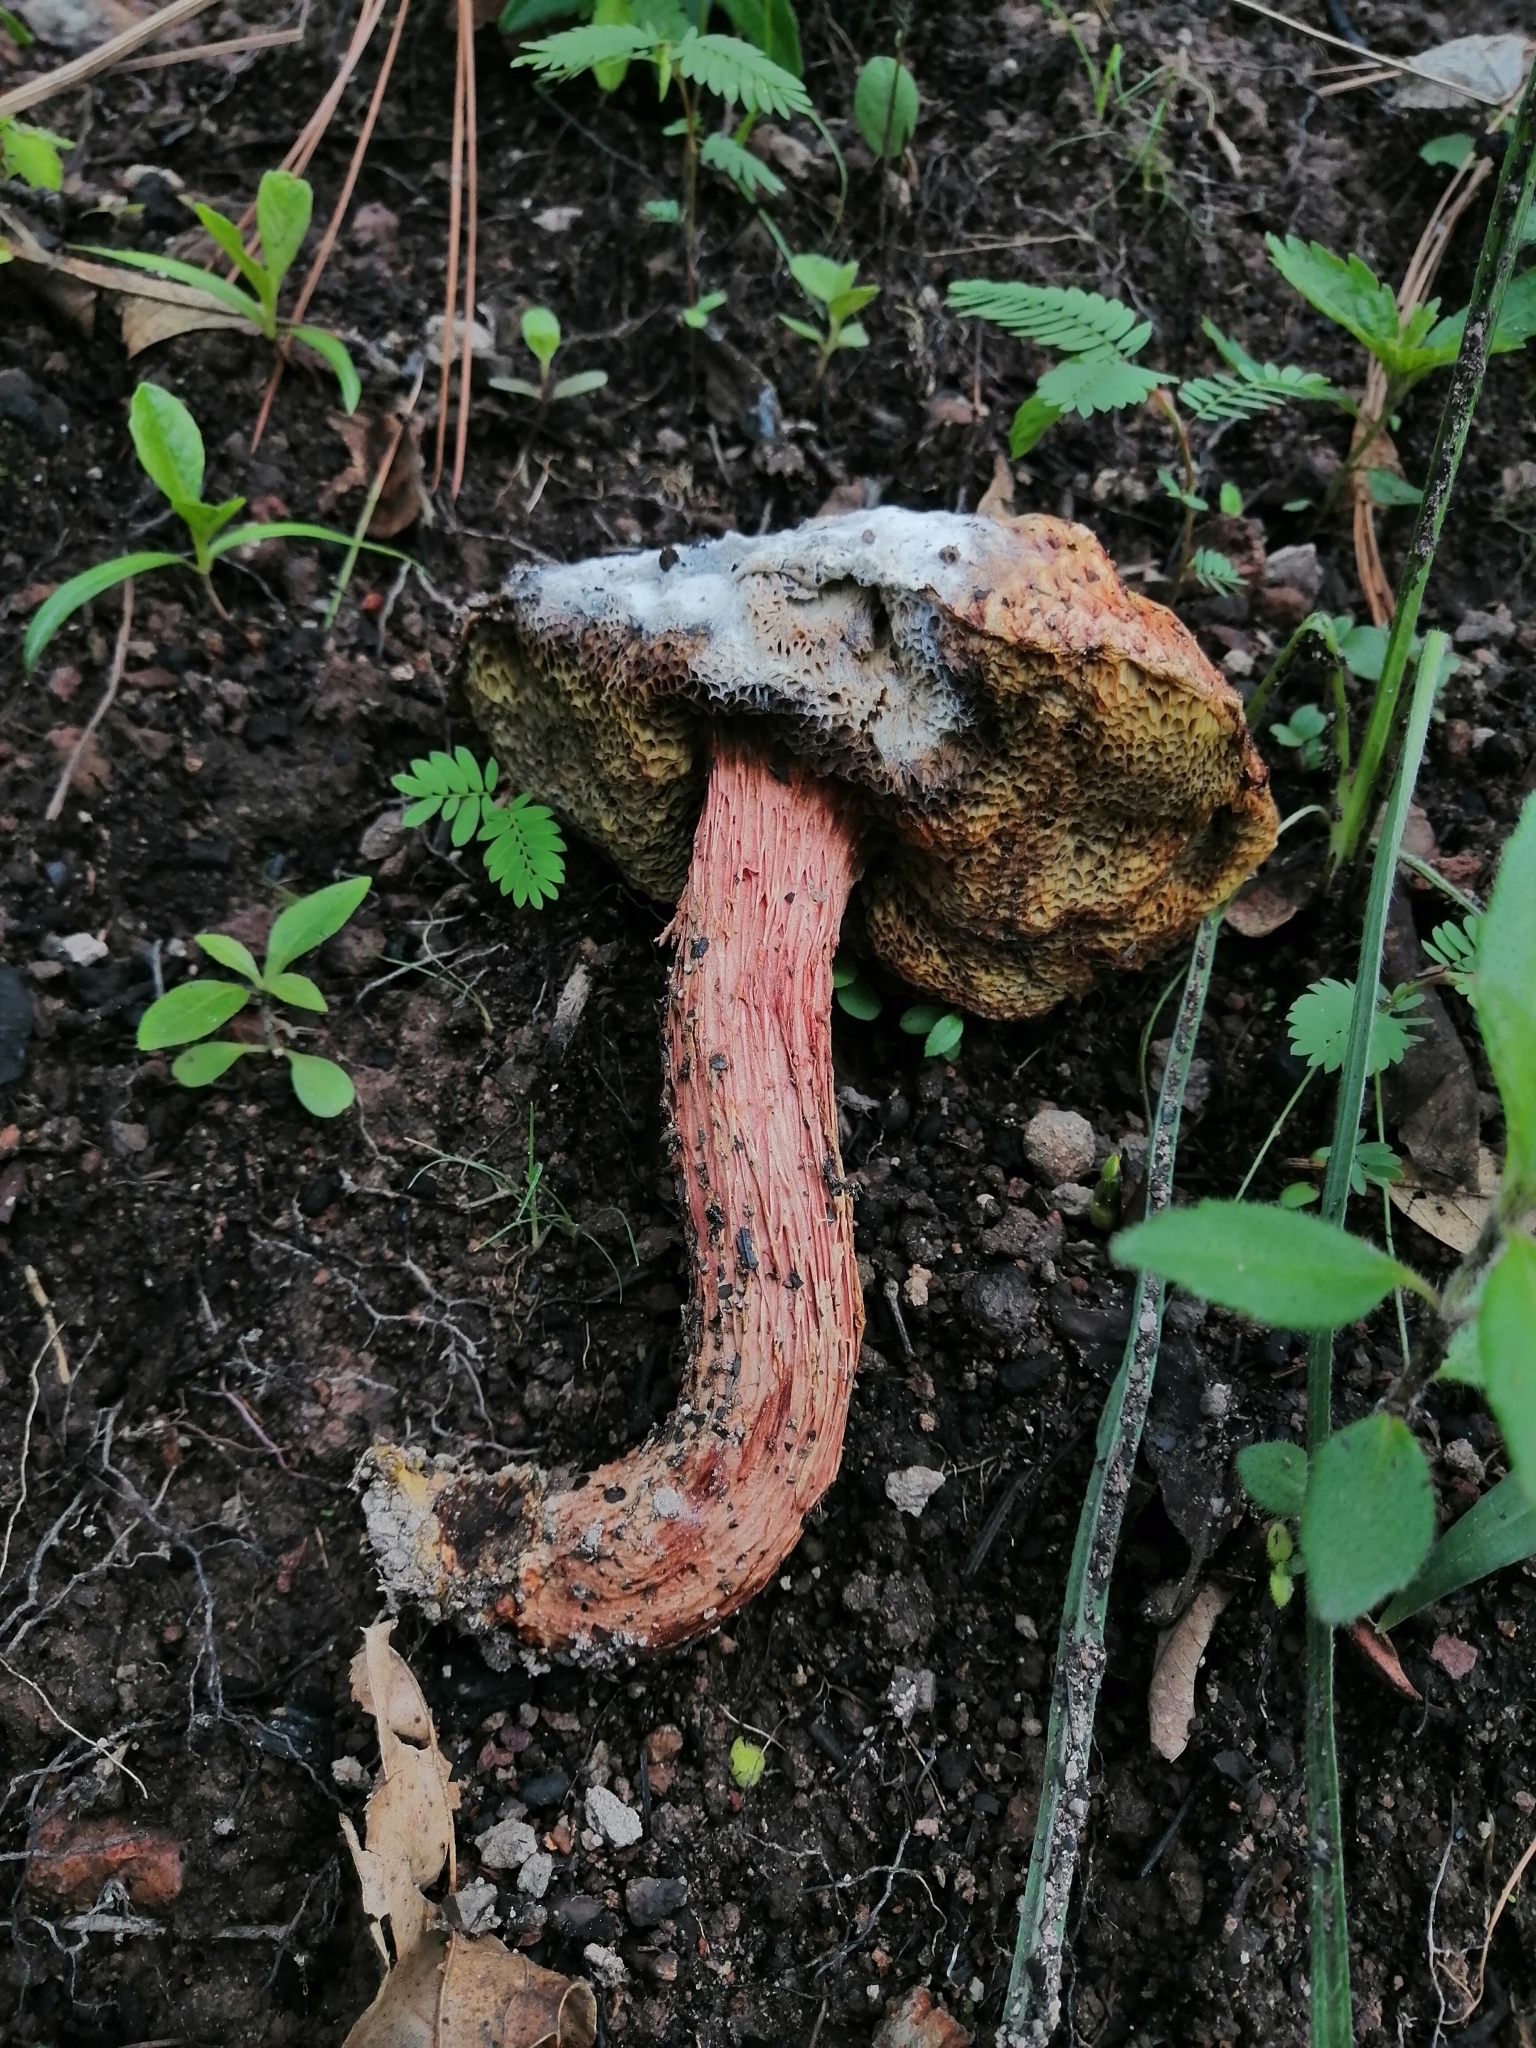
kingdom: Fungi
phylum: Basidiomycota
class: Agaricomycetes
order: Boletales
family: Boletaceae
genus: Butyriboletus
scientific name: Butyriboletus frostii
